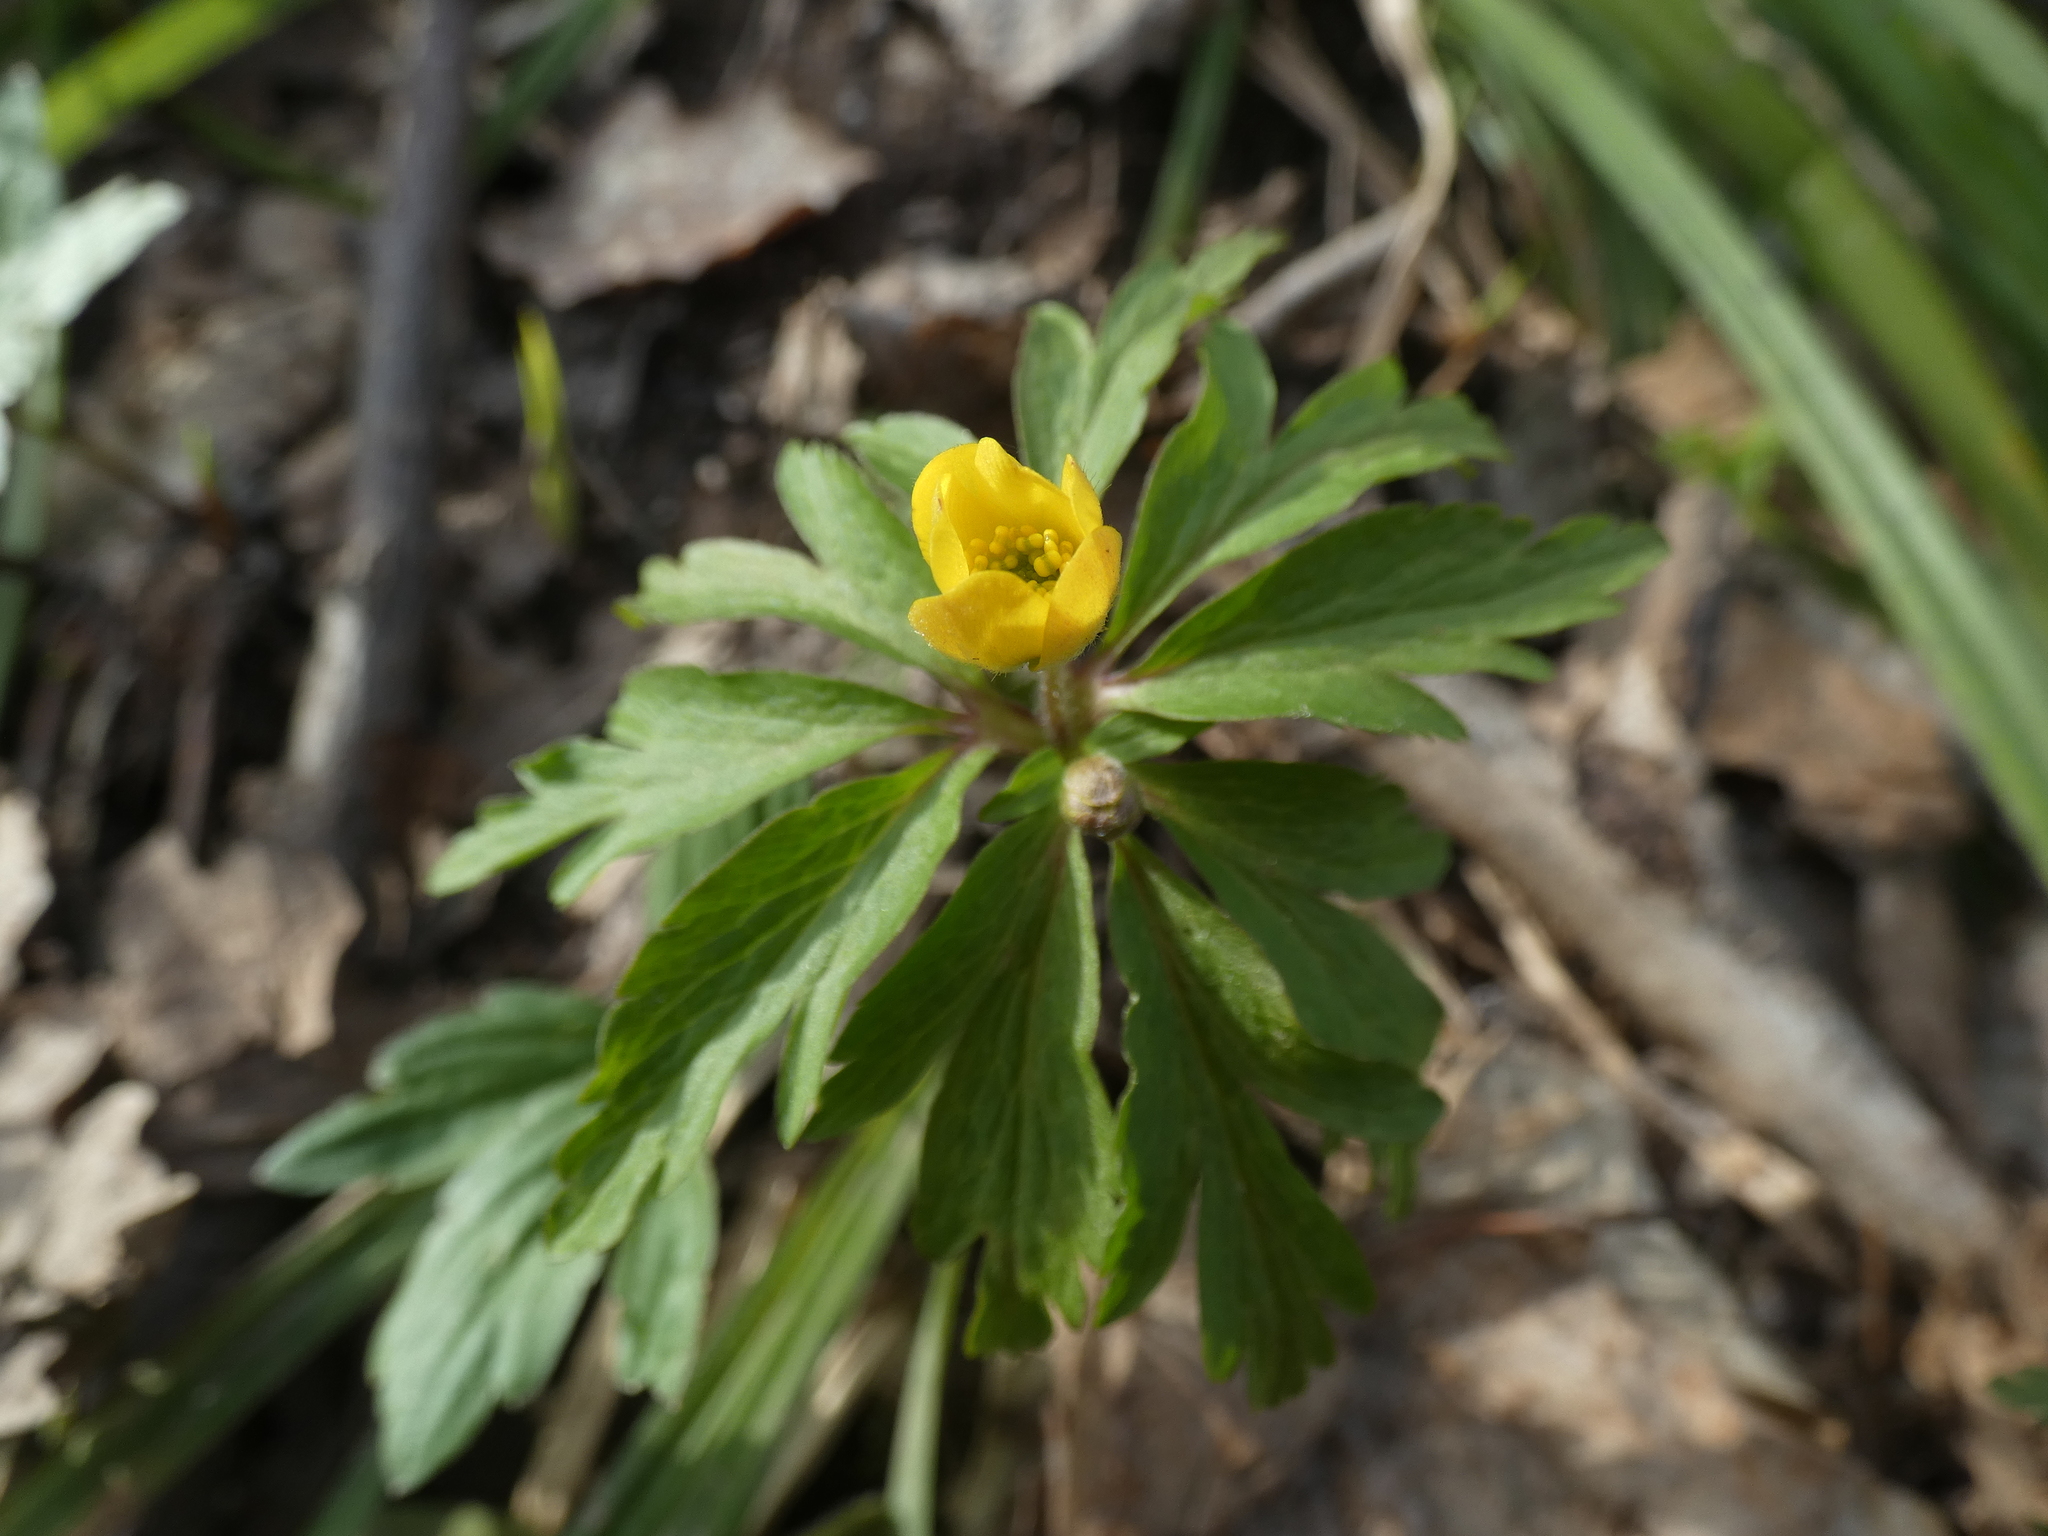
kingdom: Plantae
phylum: Tracheophyta
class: Magnoliopsida
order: Ranunculales
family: Ranunculaceae
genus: Anemone
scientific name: Anemone ranunculoides
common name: Yellow anemone
